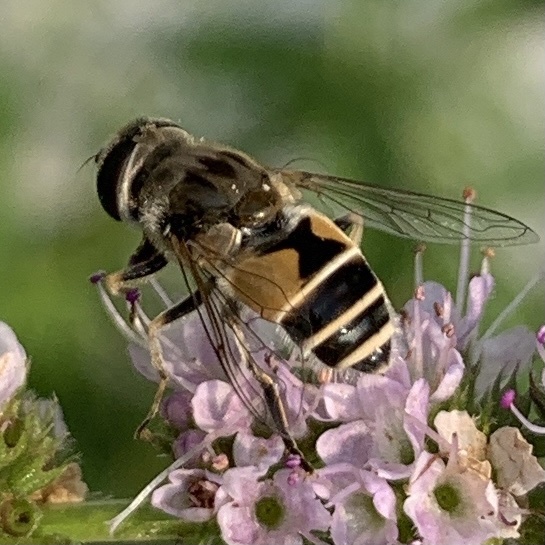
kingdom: Animalia
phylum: Arthropoda
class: Insecta
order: Diptera
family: Syrphidae
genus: Eristalis
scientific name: Eristalis arbustorum
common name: Hover fly
